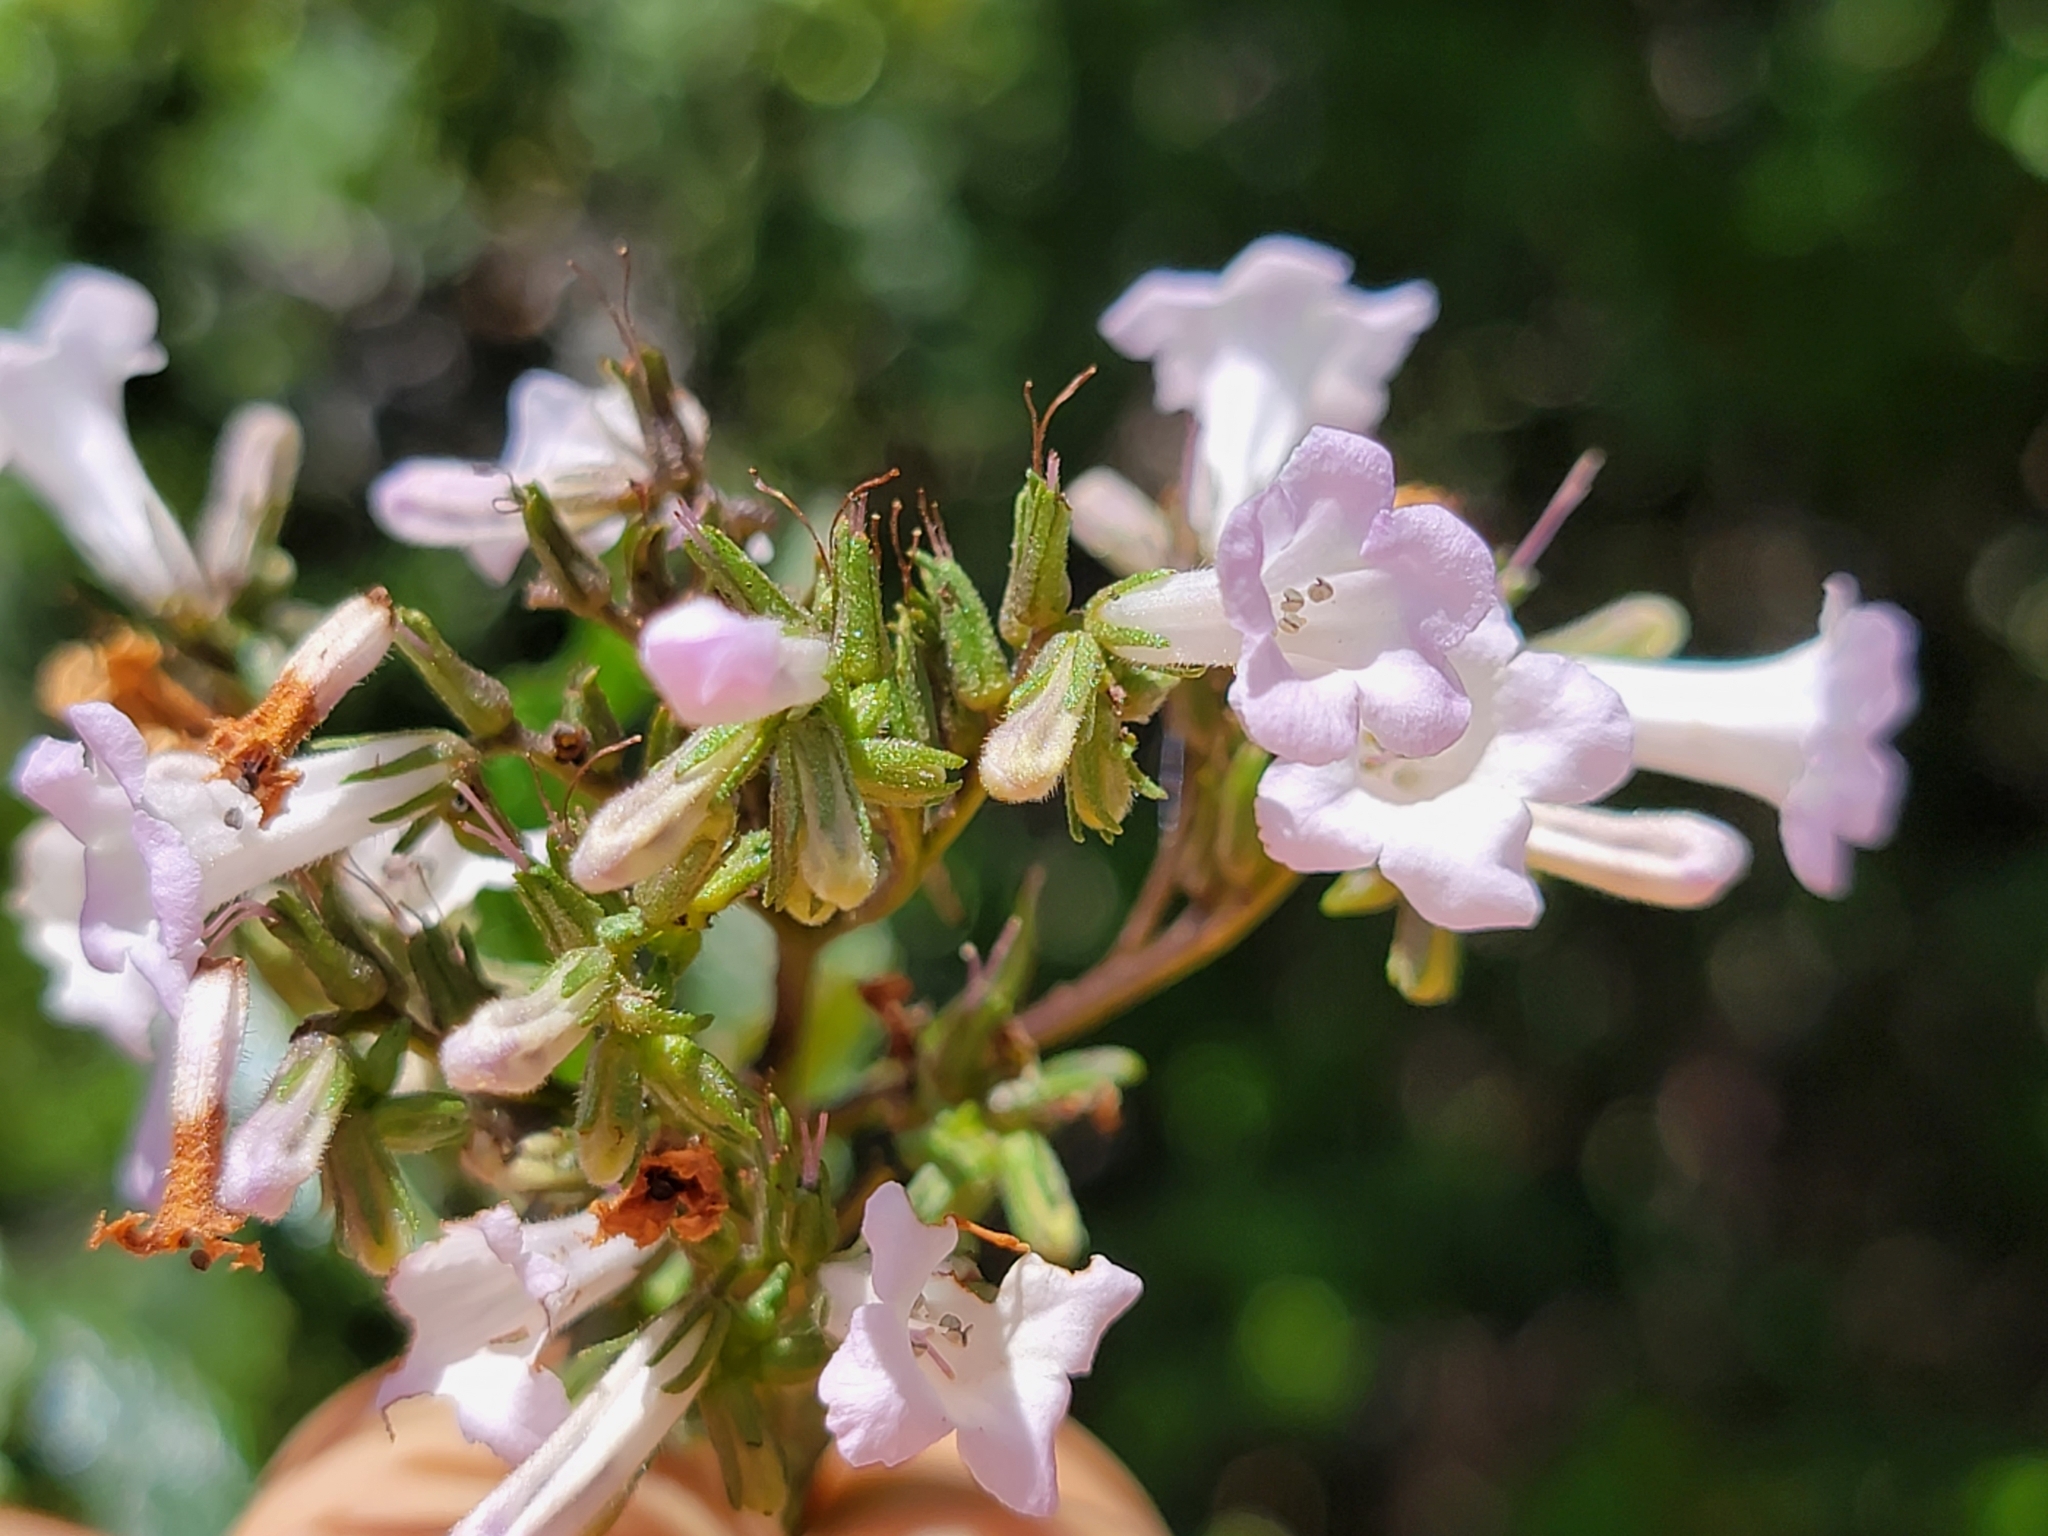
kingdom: Plantae
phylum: Tracheophyta
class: Magnoliopsida
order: Boraginales
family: Namaceae
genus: Eriodictyon
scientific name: Eriodictyon californicum
